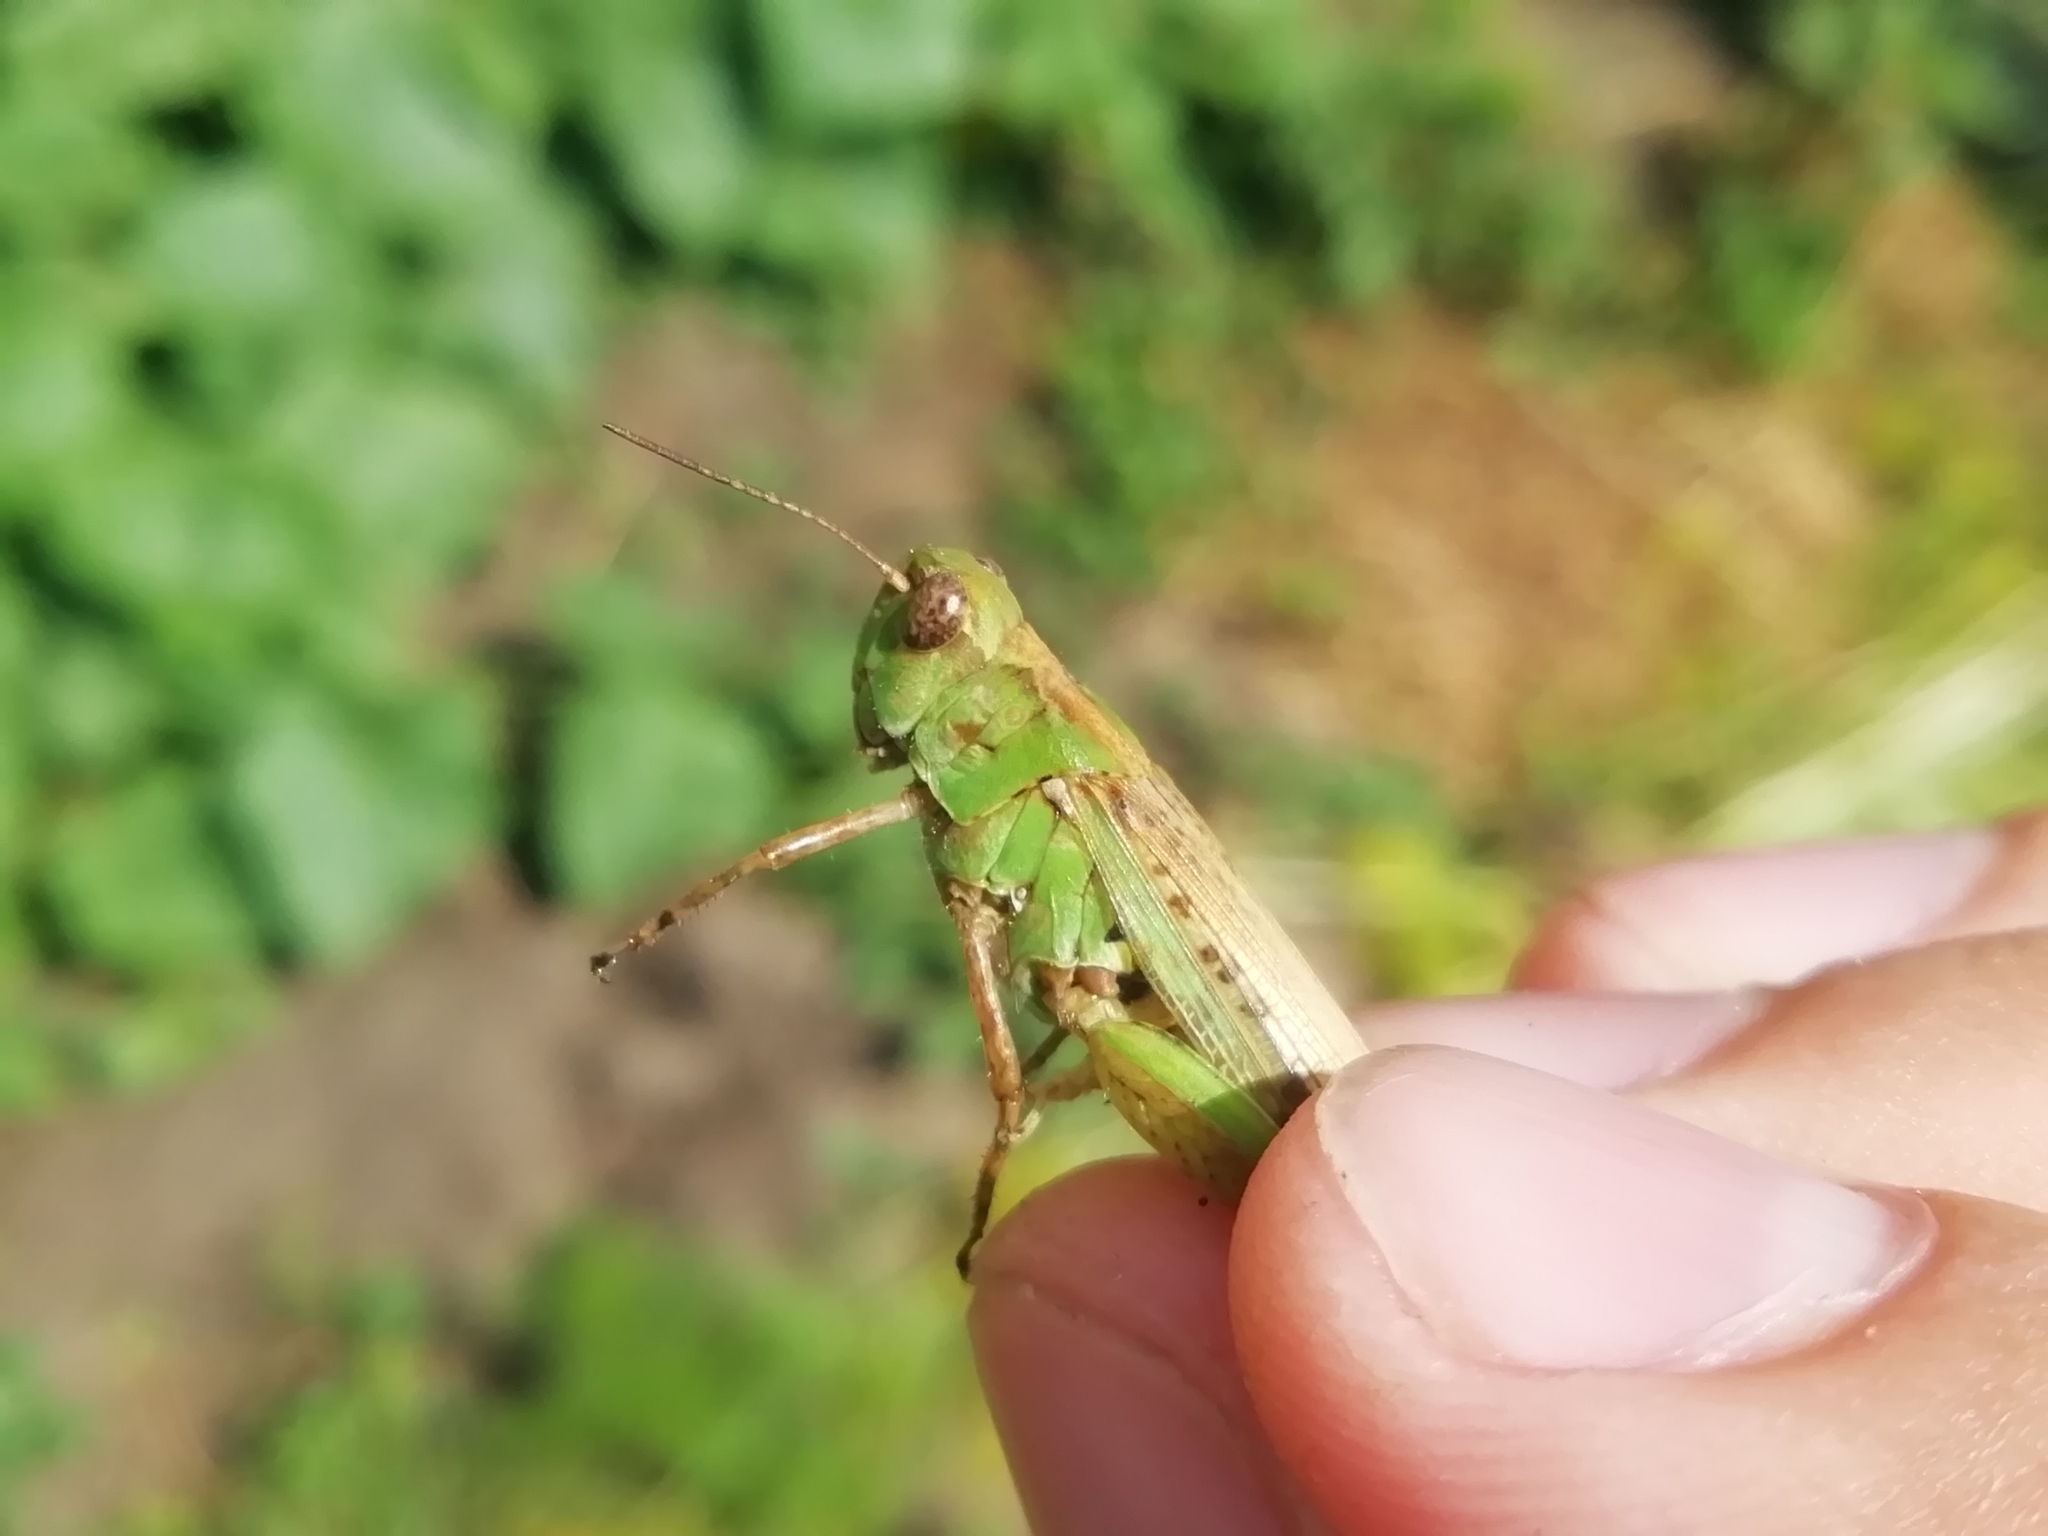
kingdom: Animalia
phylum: Arthropoda
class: Insecta
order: Orthoptera
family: Acrididae
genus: Aiolopus
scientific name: Aiolopus thalassinus
